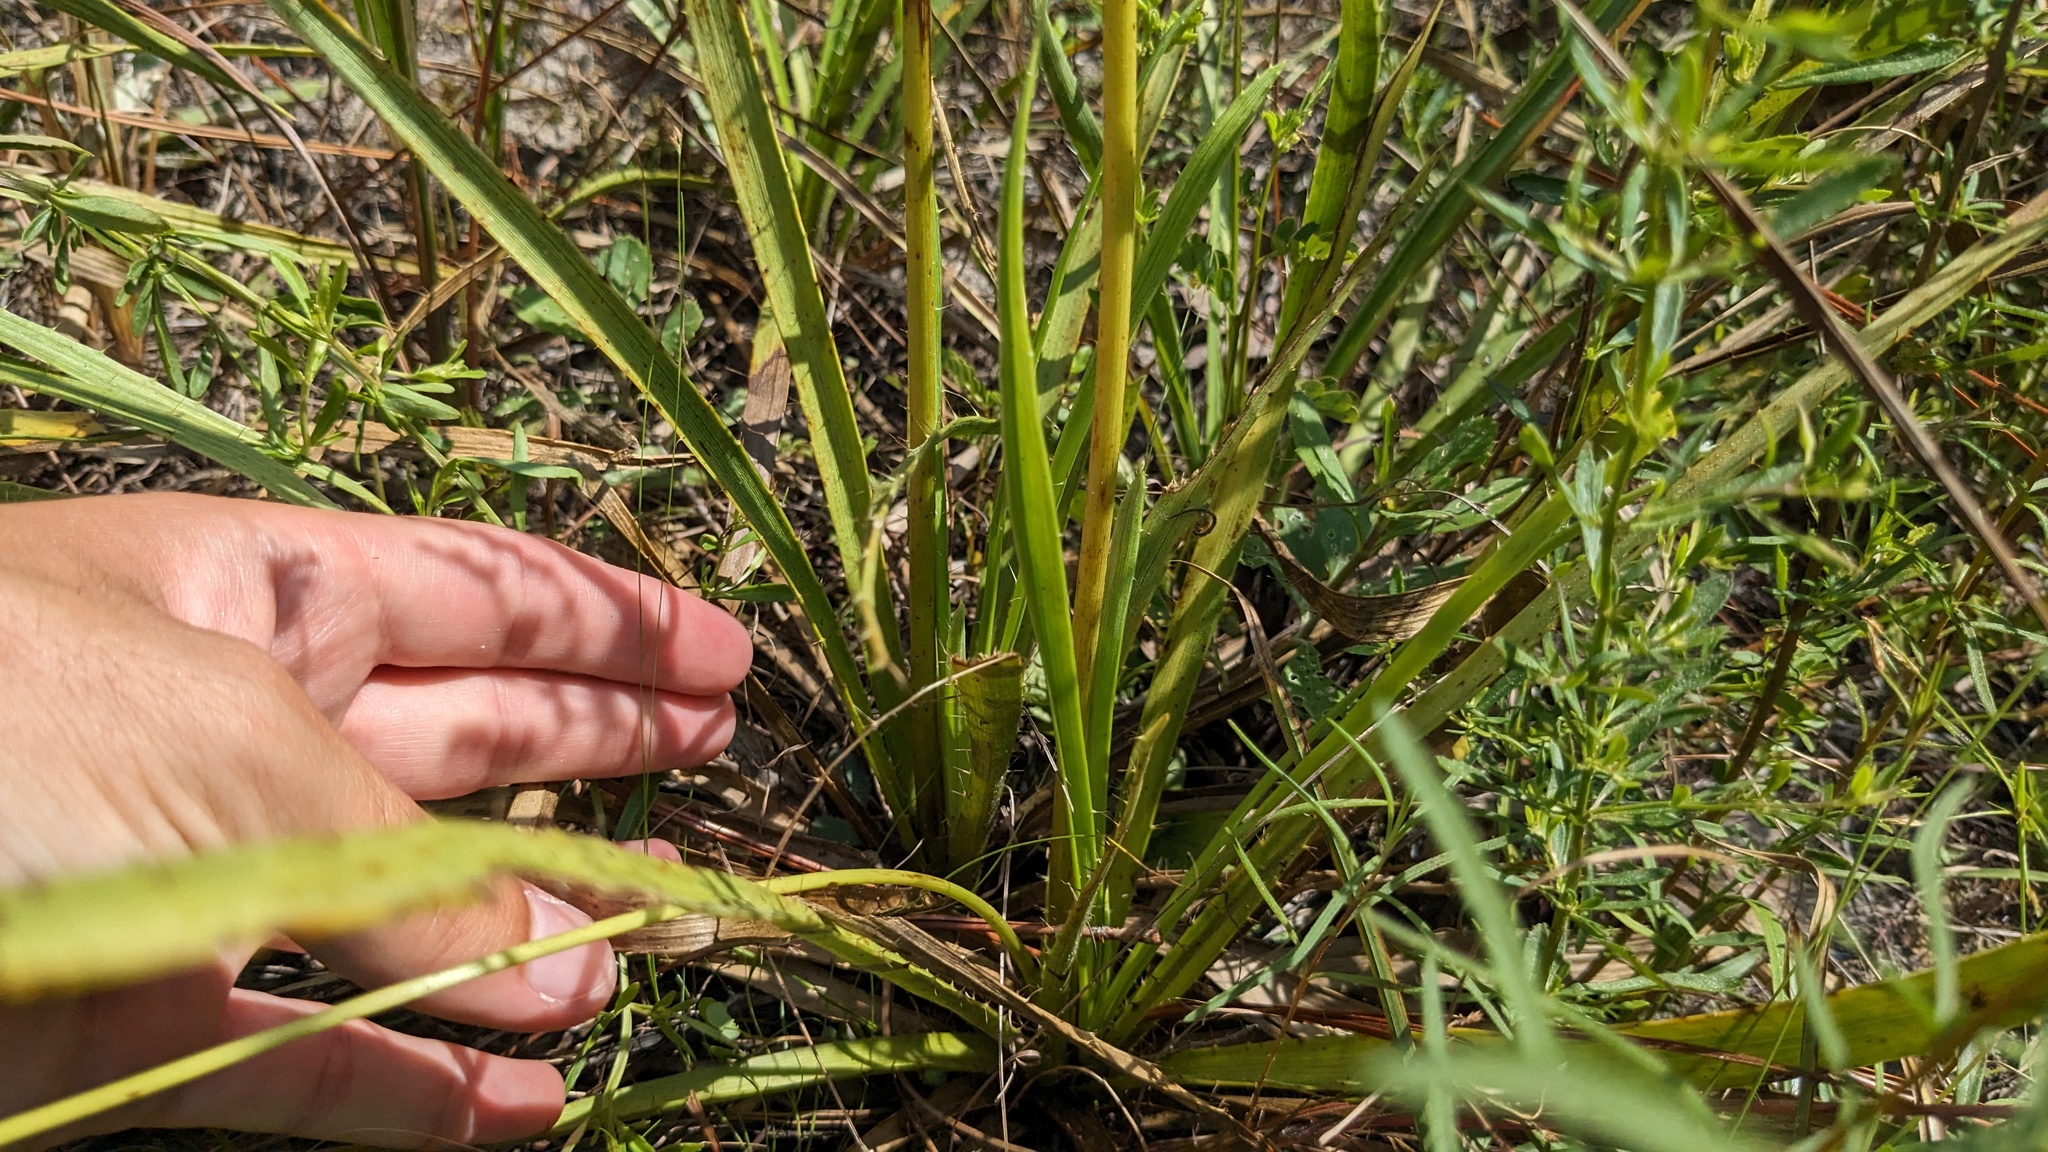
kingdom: Plantae
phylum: Tracheophyta
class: Magnoliopsida
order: Apiales
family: Apiaceae
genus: Eryngium
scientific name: Eryngium yuccifolium
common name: Button eryngo
